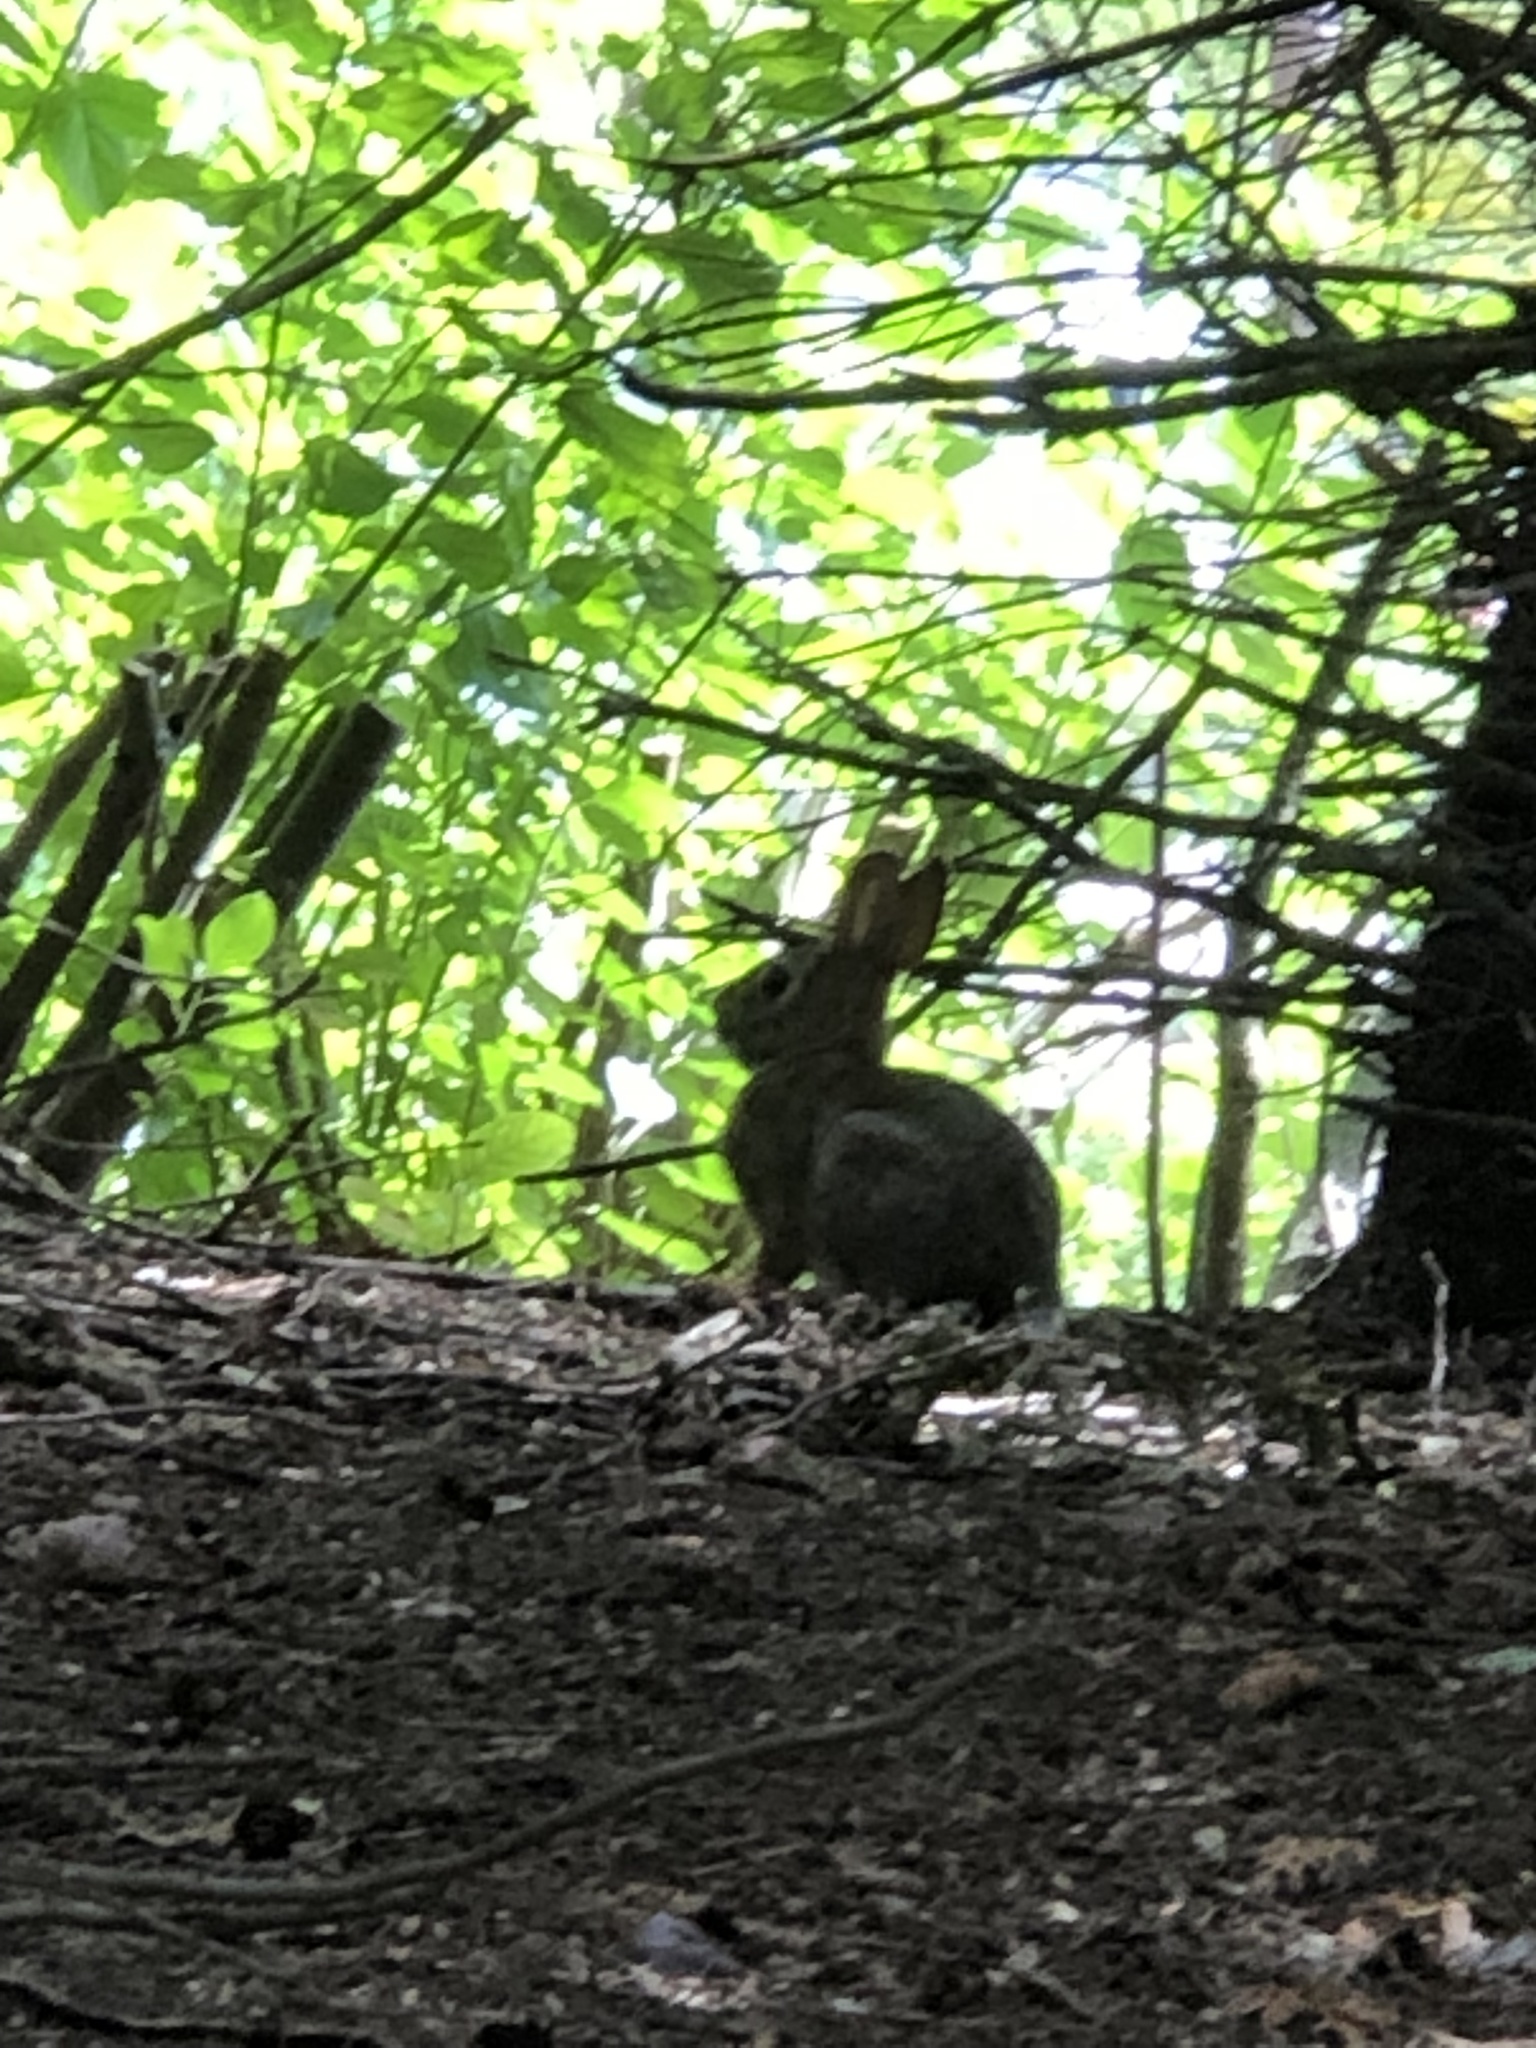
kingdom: Animalia
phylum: Chordata
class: Mammalia
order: Lagomorpha
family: Leporidae
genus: Sylvilagus
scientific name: Sylvilagus floridanus
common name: Eastern cottontail
